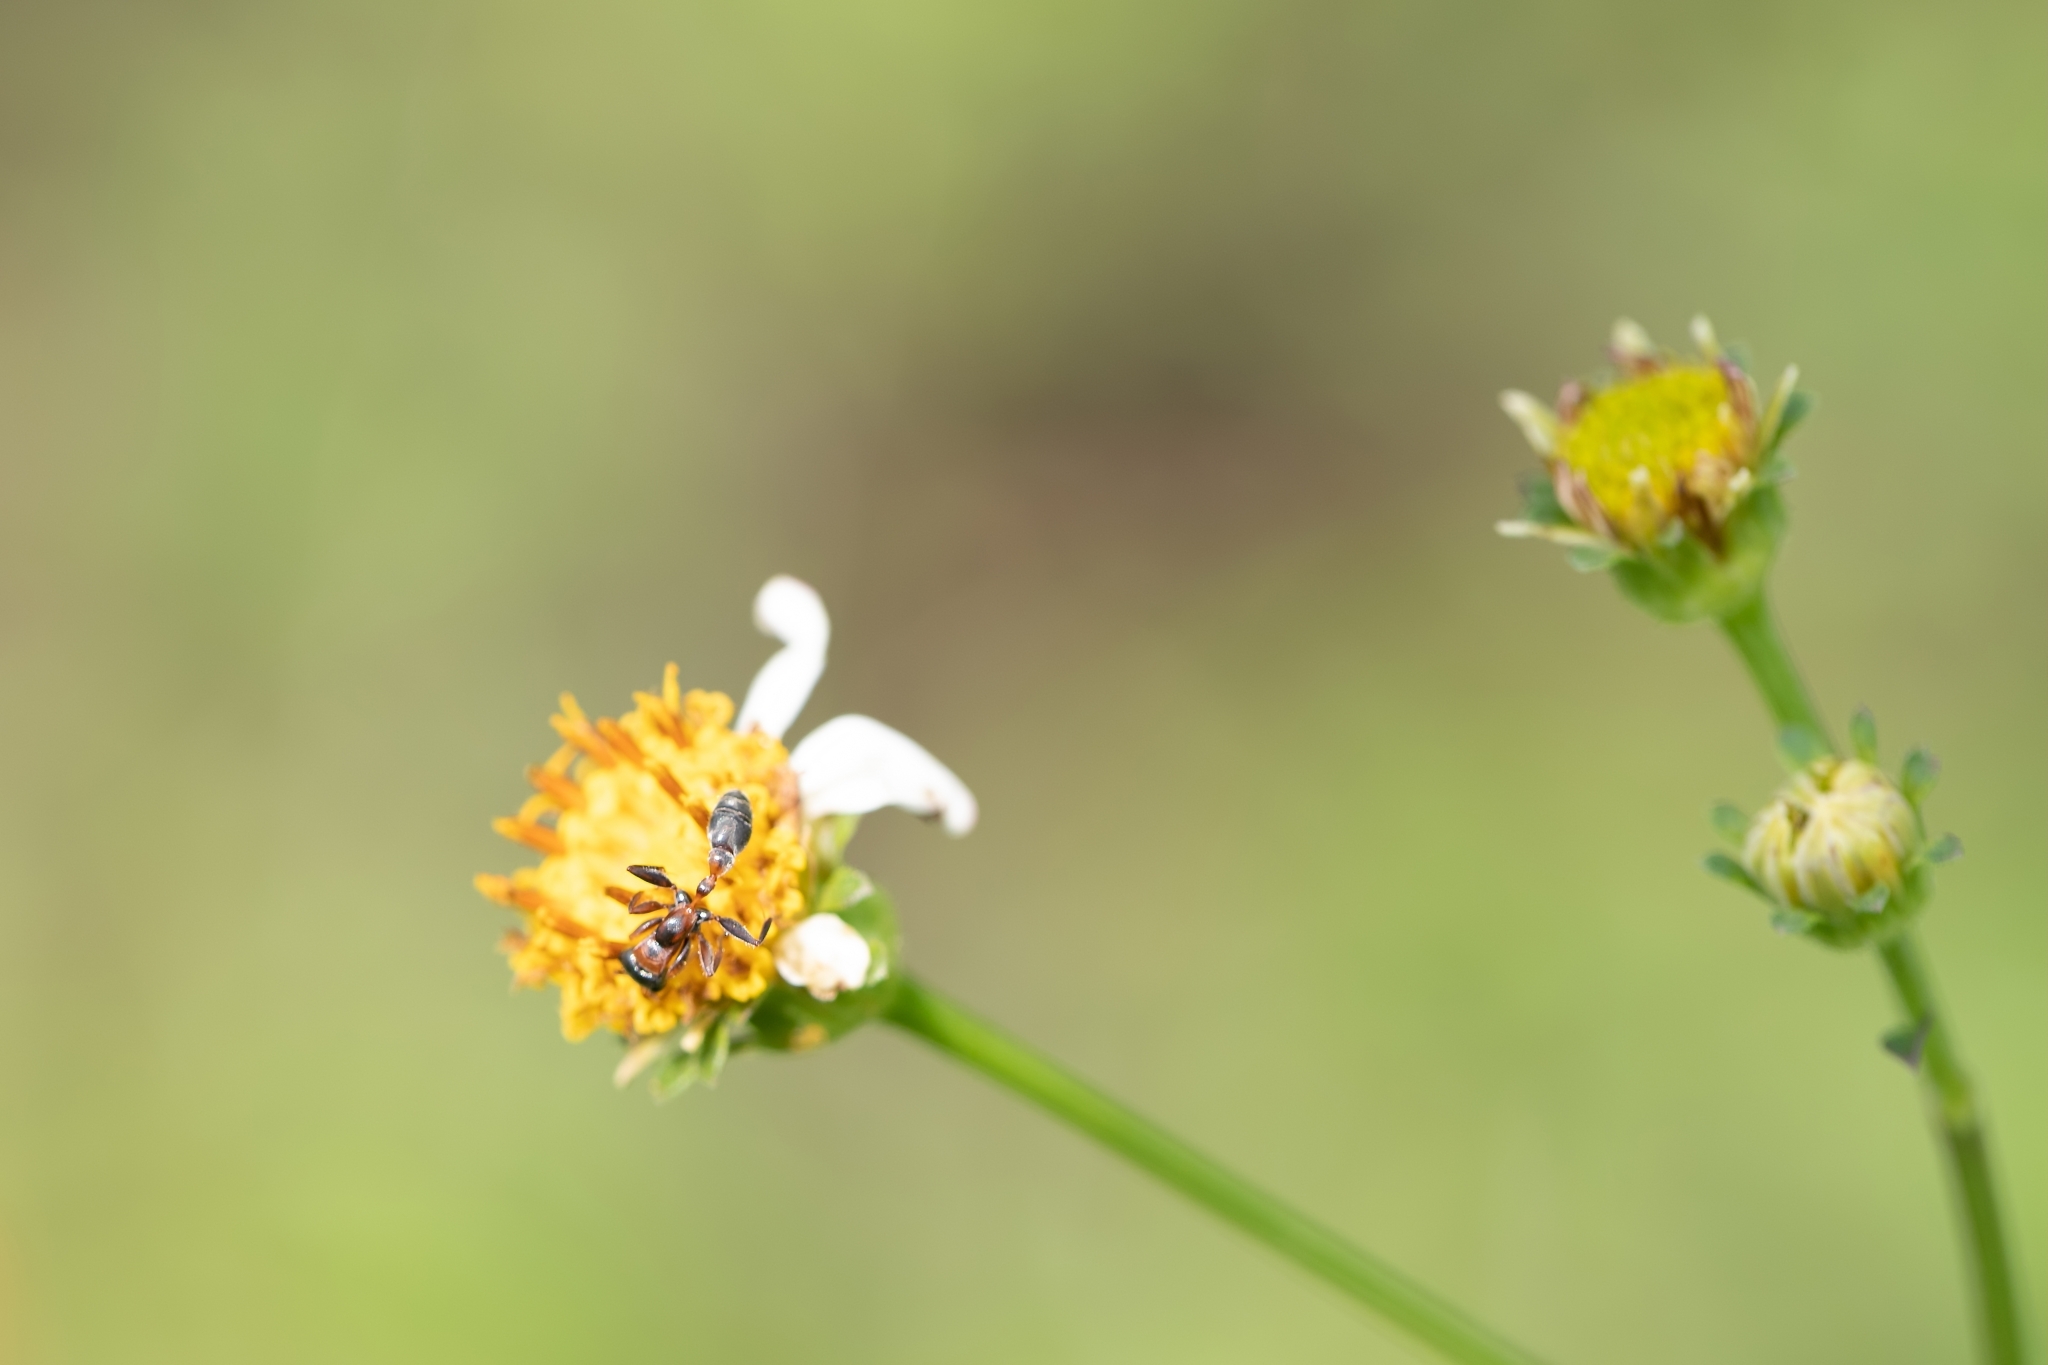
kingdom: Animalia
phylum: Arthropoda
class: Insecta
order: Hymenoptera
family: Formicidae
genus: Pseudomyrmex
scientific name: Pseudomyrmex gracilis
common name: Graceful twig ant
